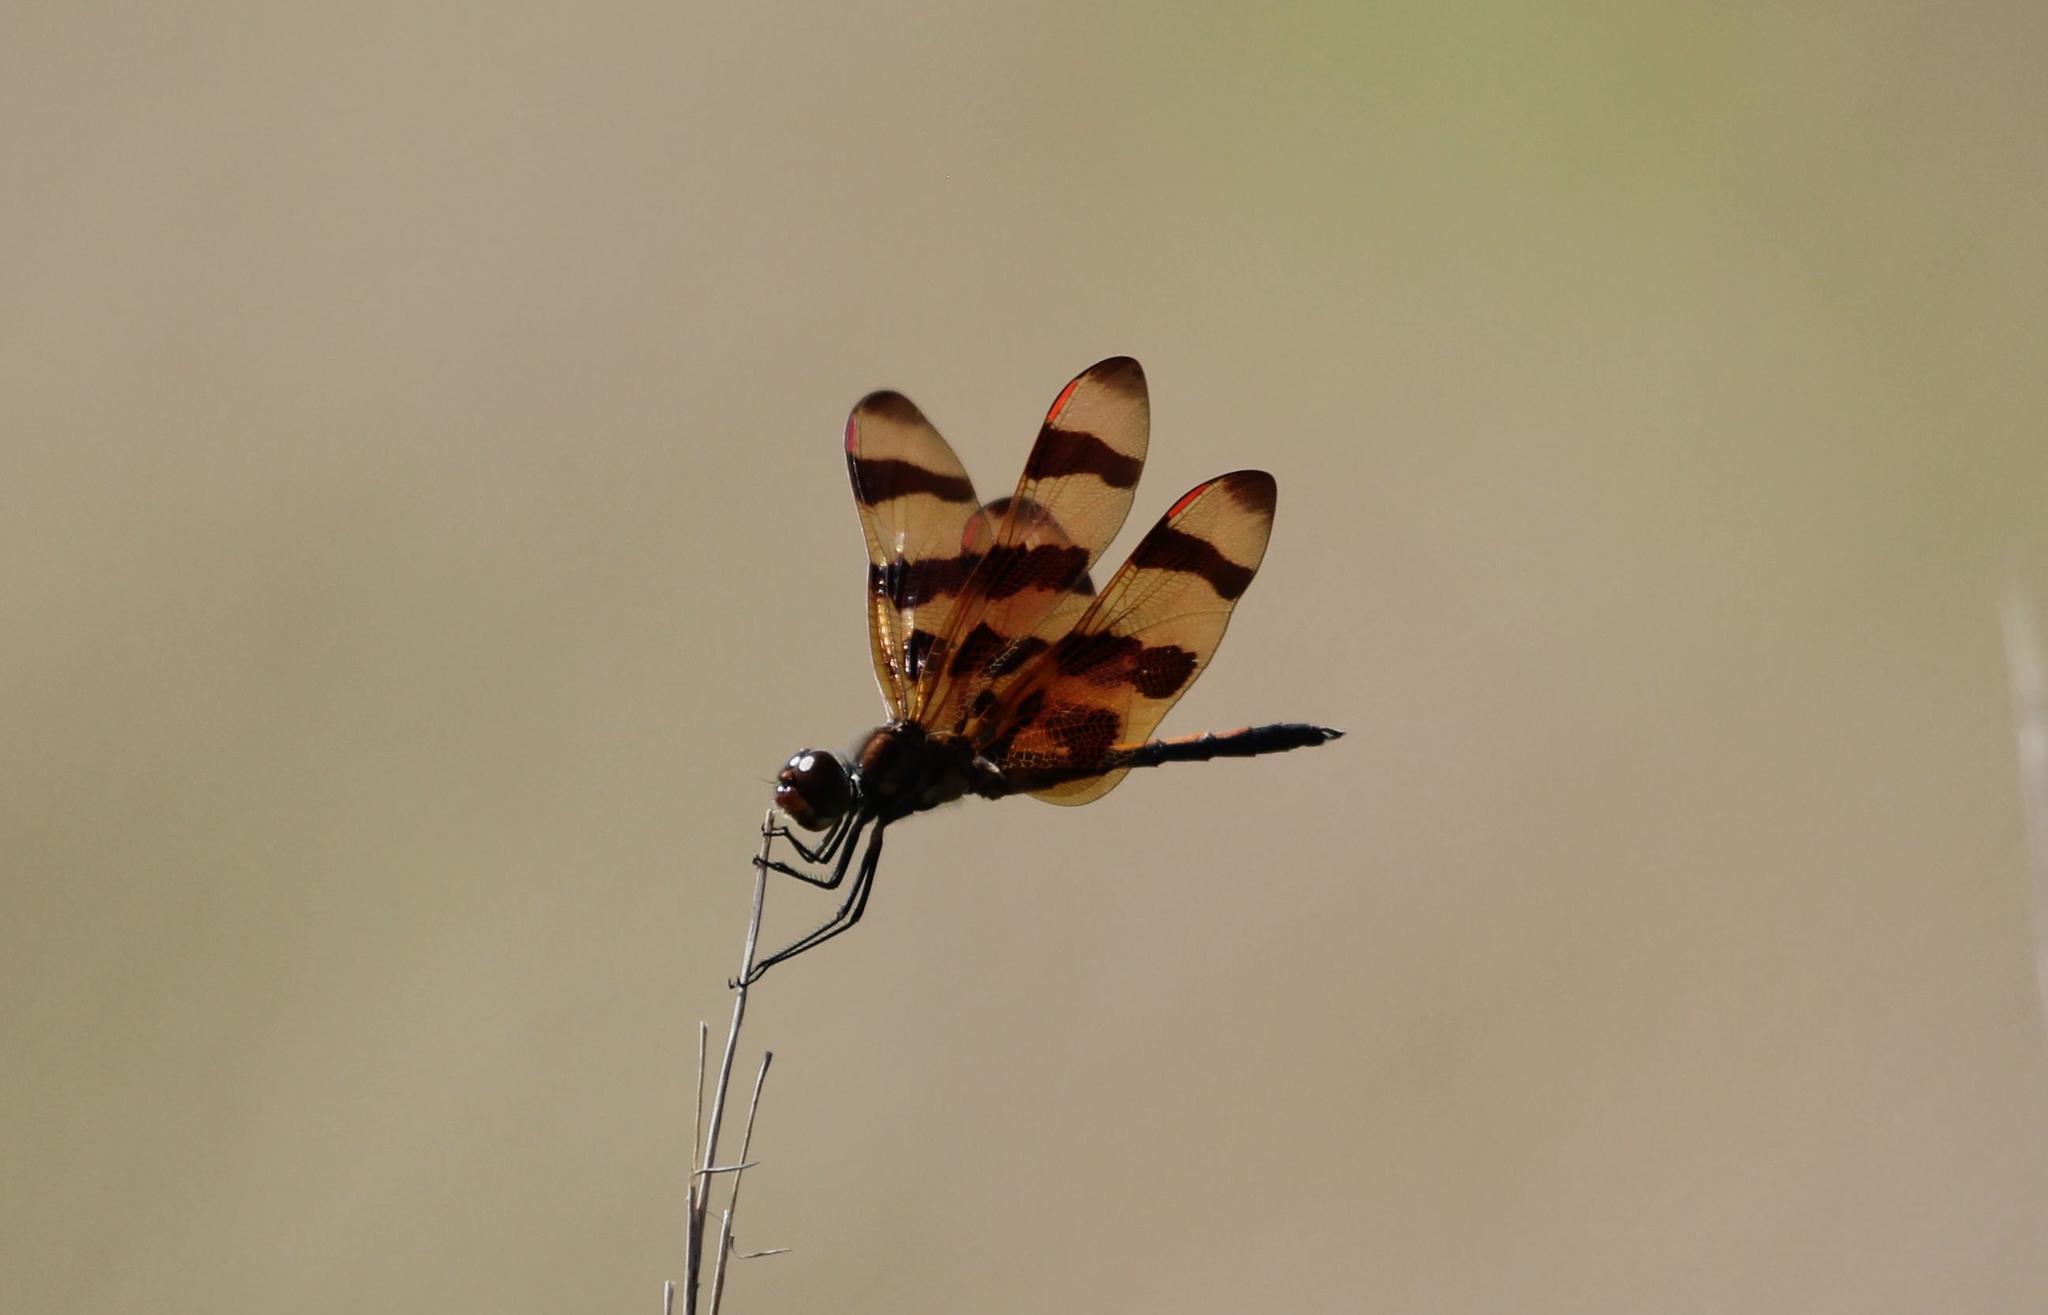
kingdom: Animalia
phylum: Arthropoda
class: Insecta
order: Odonata
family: Libellulidae
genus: Celithemis
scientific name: Celithemis eponina
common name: Halloween pennant
